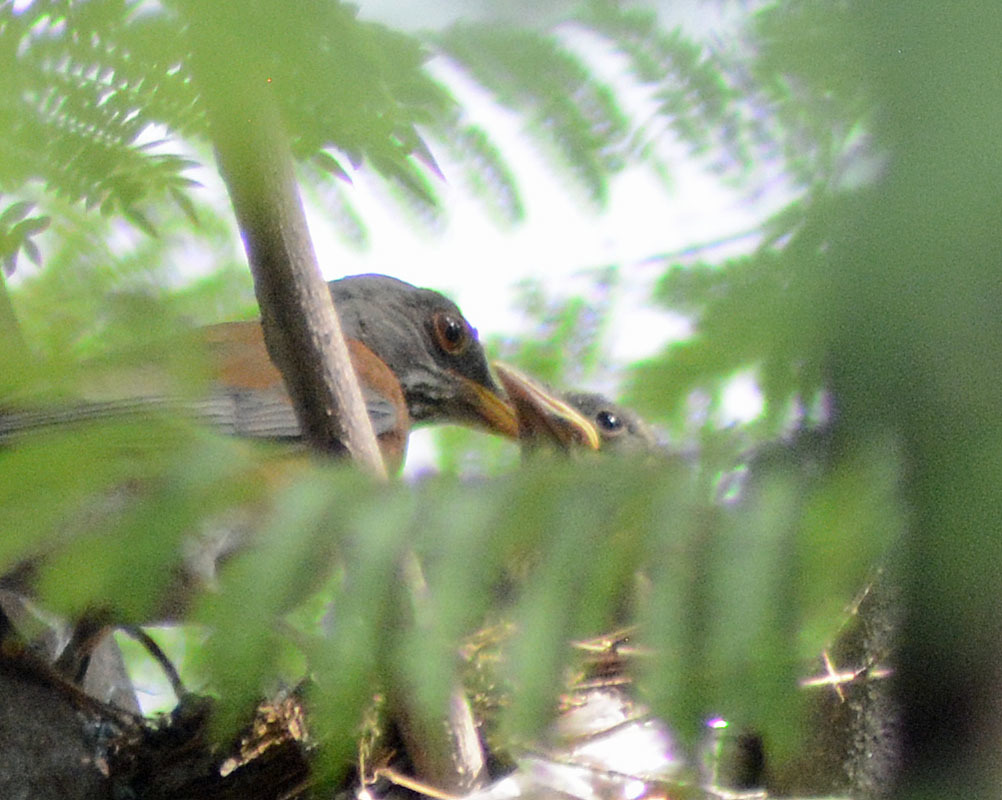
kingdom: Animalia
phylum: Chordata
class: Aves
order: Passeriformes
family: Turdidae
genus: Turdus
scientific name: Turdus rufopalliatus
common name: Rufous-backed robin
